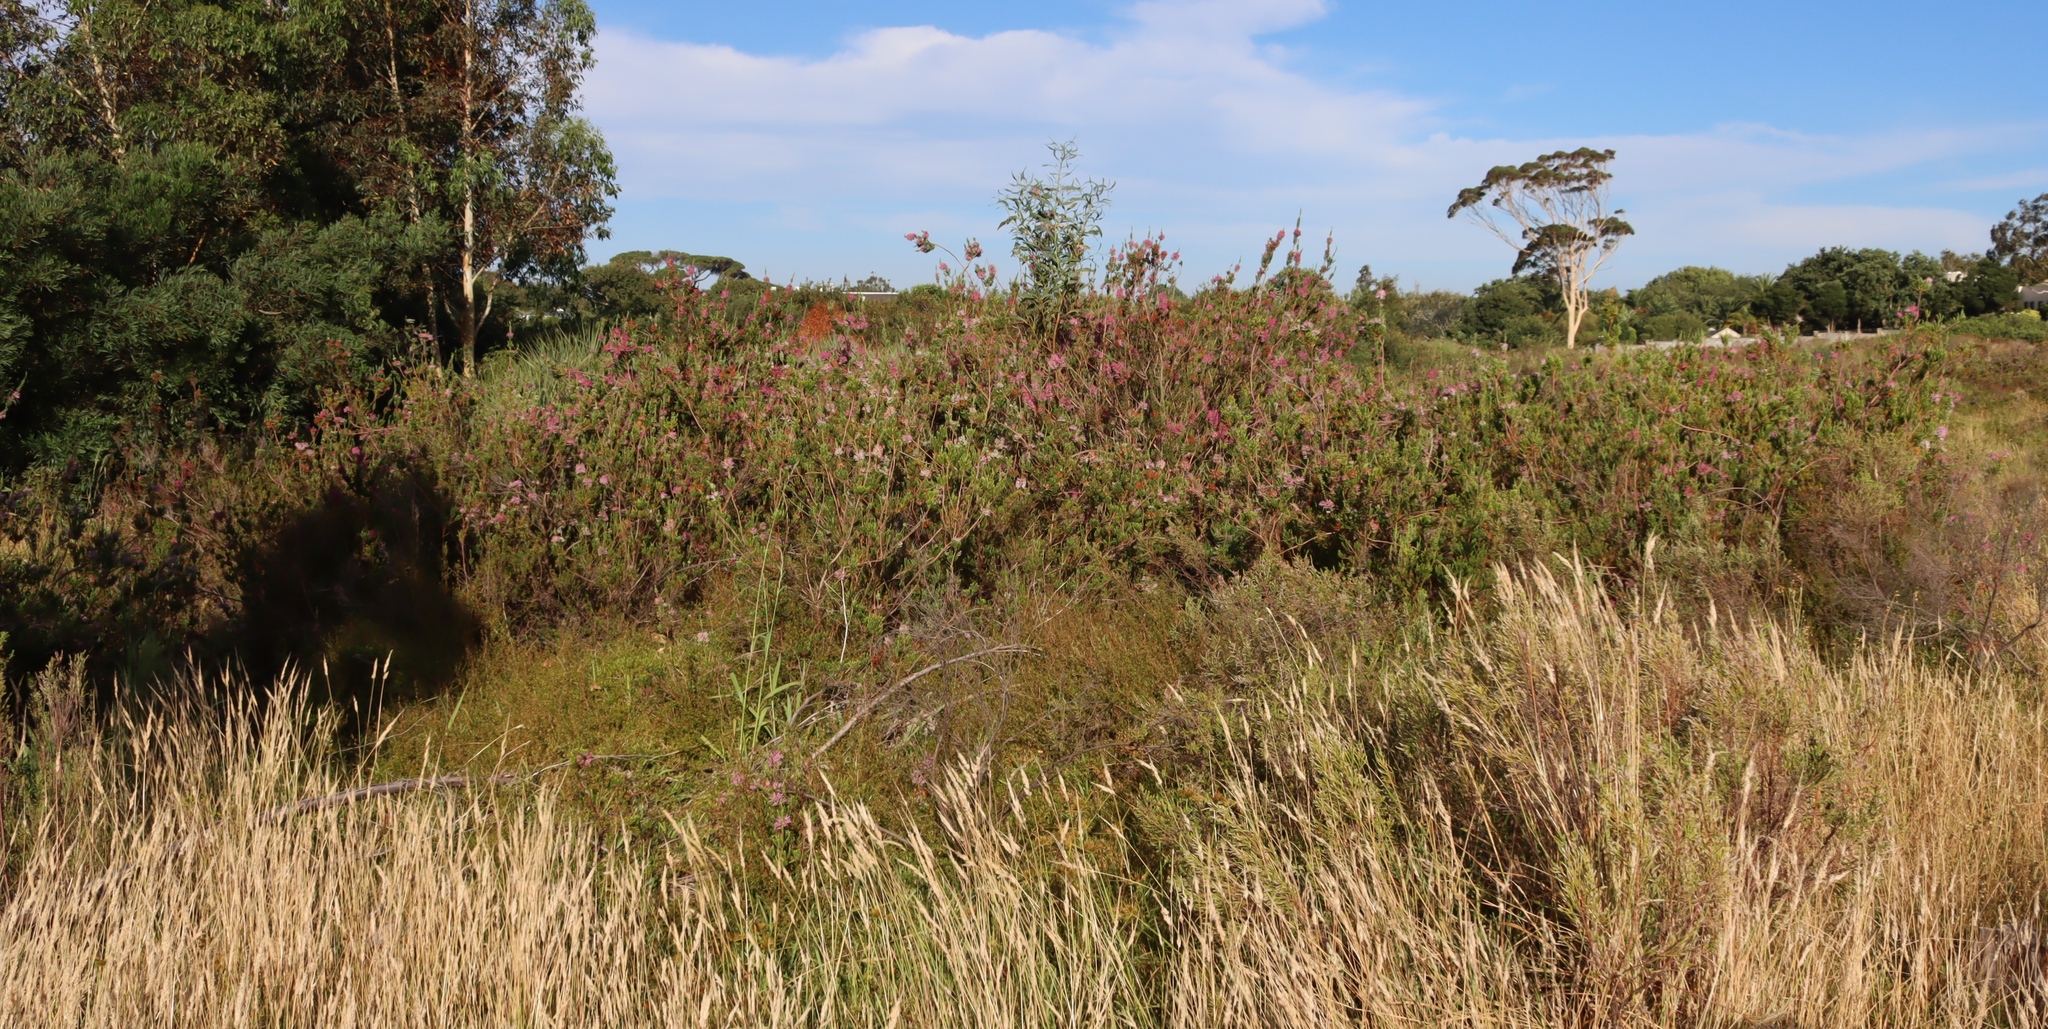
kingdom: Plantae
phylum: Tracheophyta
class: Magnoliopsida
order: Ericales
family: Ericaceae
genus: Erica
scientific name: Erica verticillata
